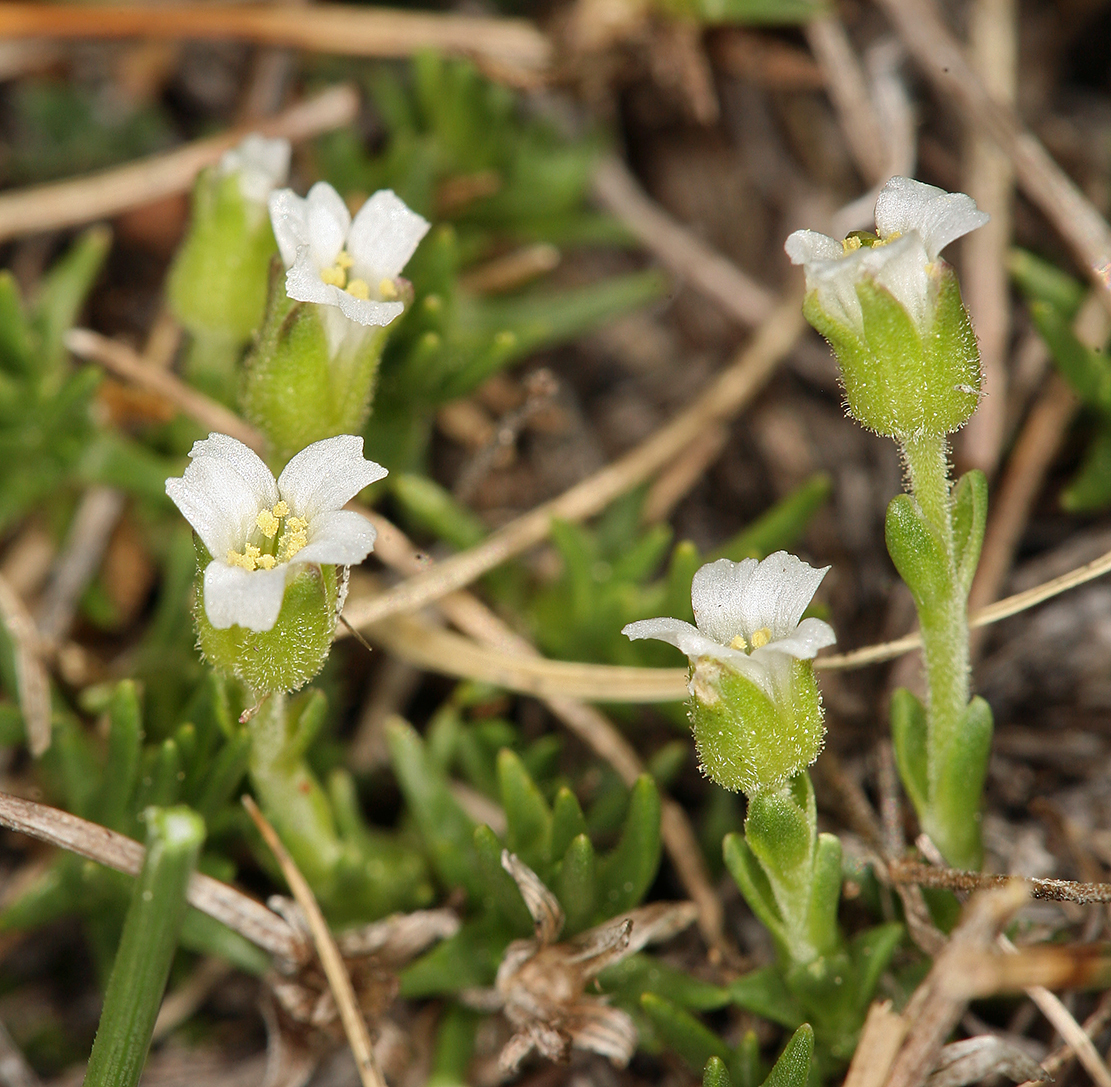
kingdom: Plantae
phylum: Tracheophyta
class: Magnoliopsida
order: Caryophyllales
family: Caryophyllaceae
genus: Cherleria
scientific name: Cherleria obtusiloba
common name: Alpine stitchwort
